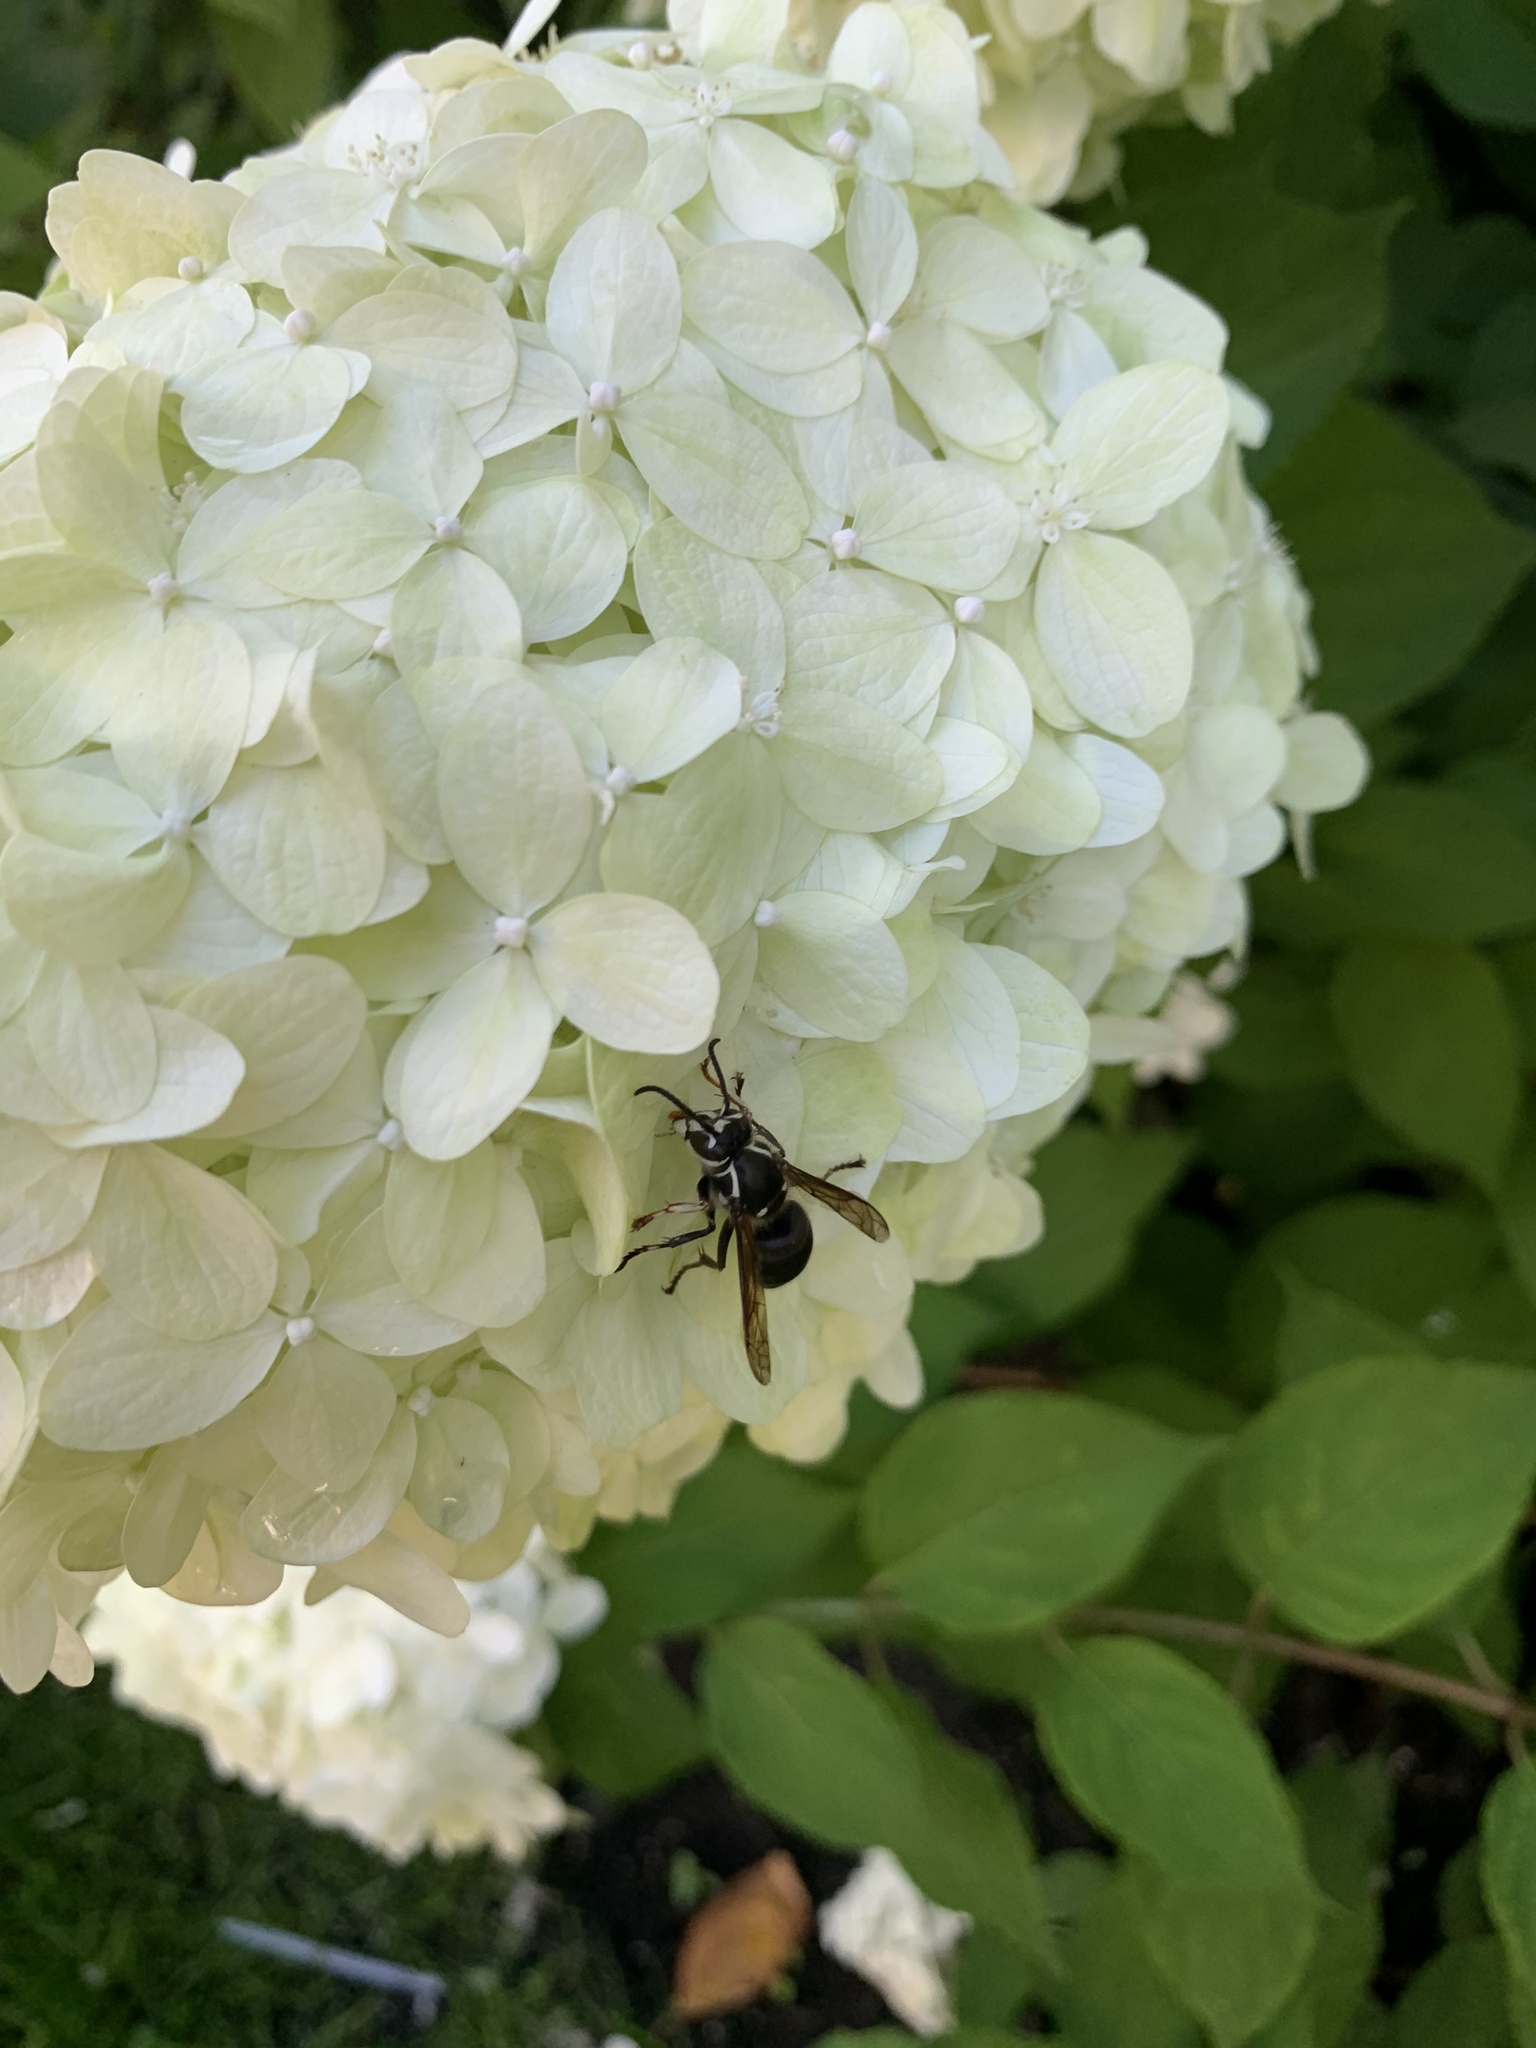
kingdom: Animalia
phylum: Arthropoda
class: Insecta
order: Hymenoptera
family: Vespidae
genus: Dolichovespula
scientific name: Dolichovespula maculata
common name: Bald-faced hornet
